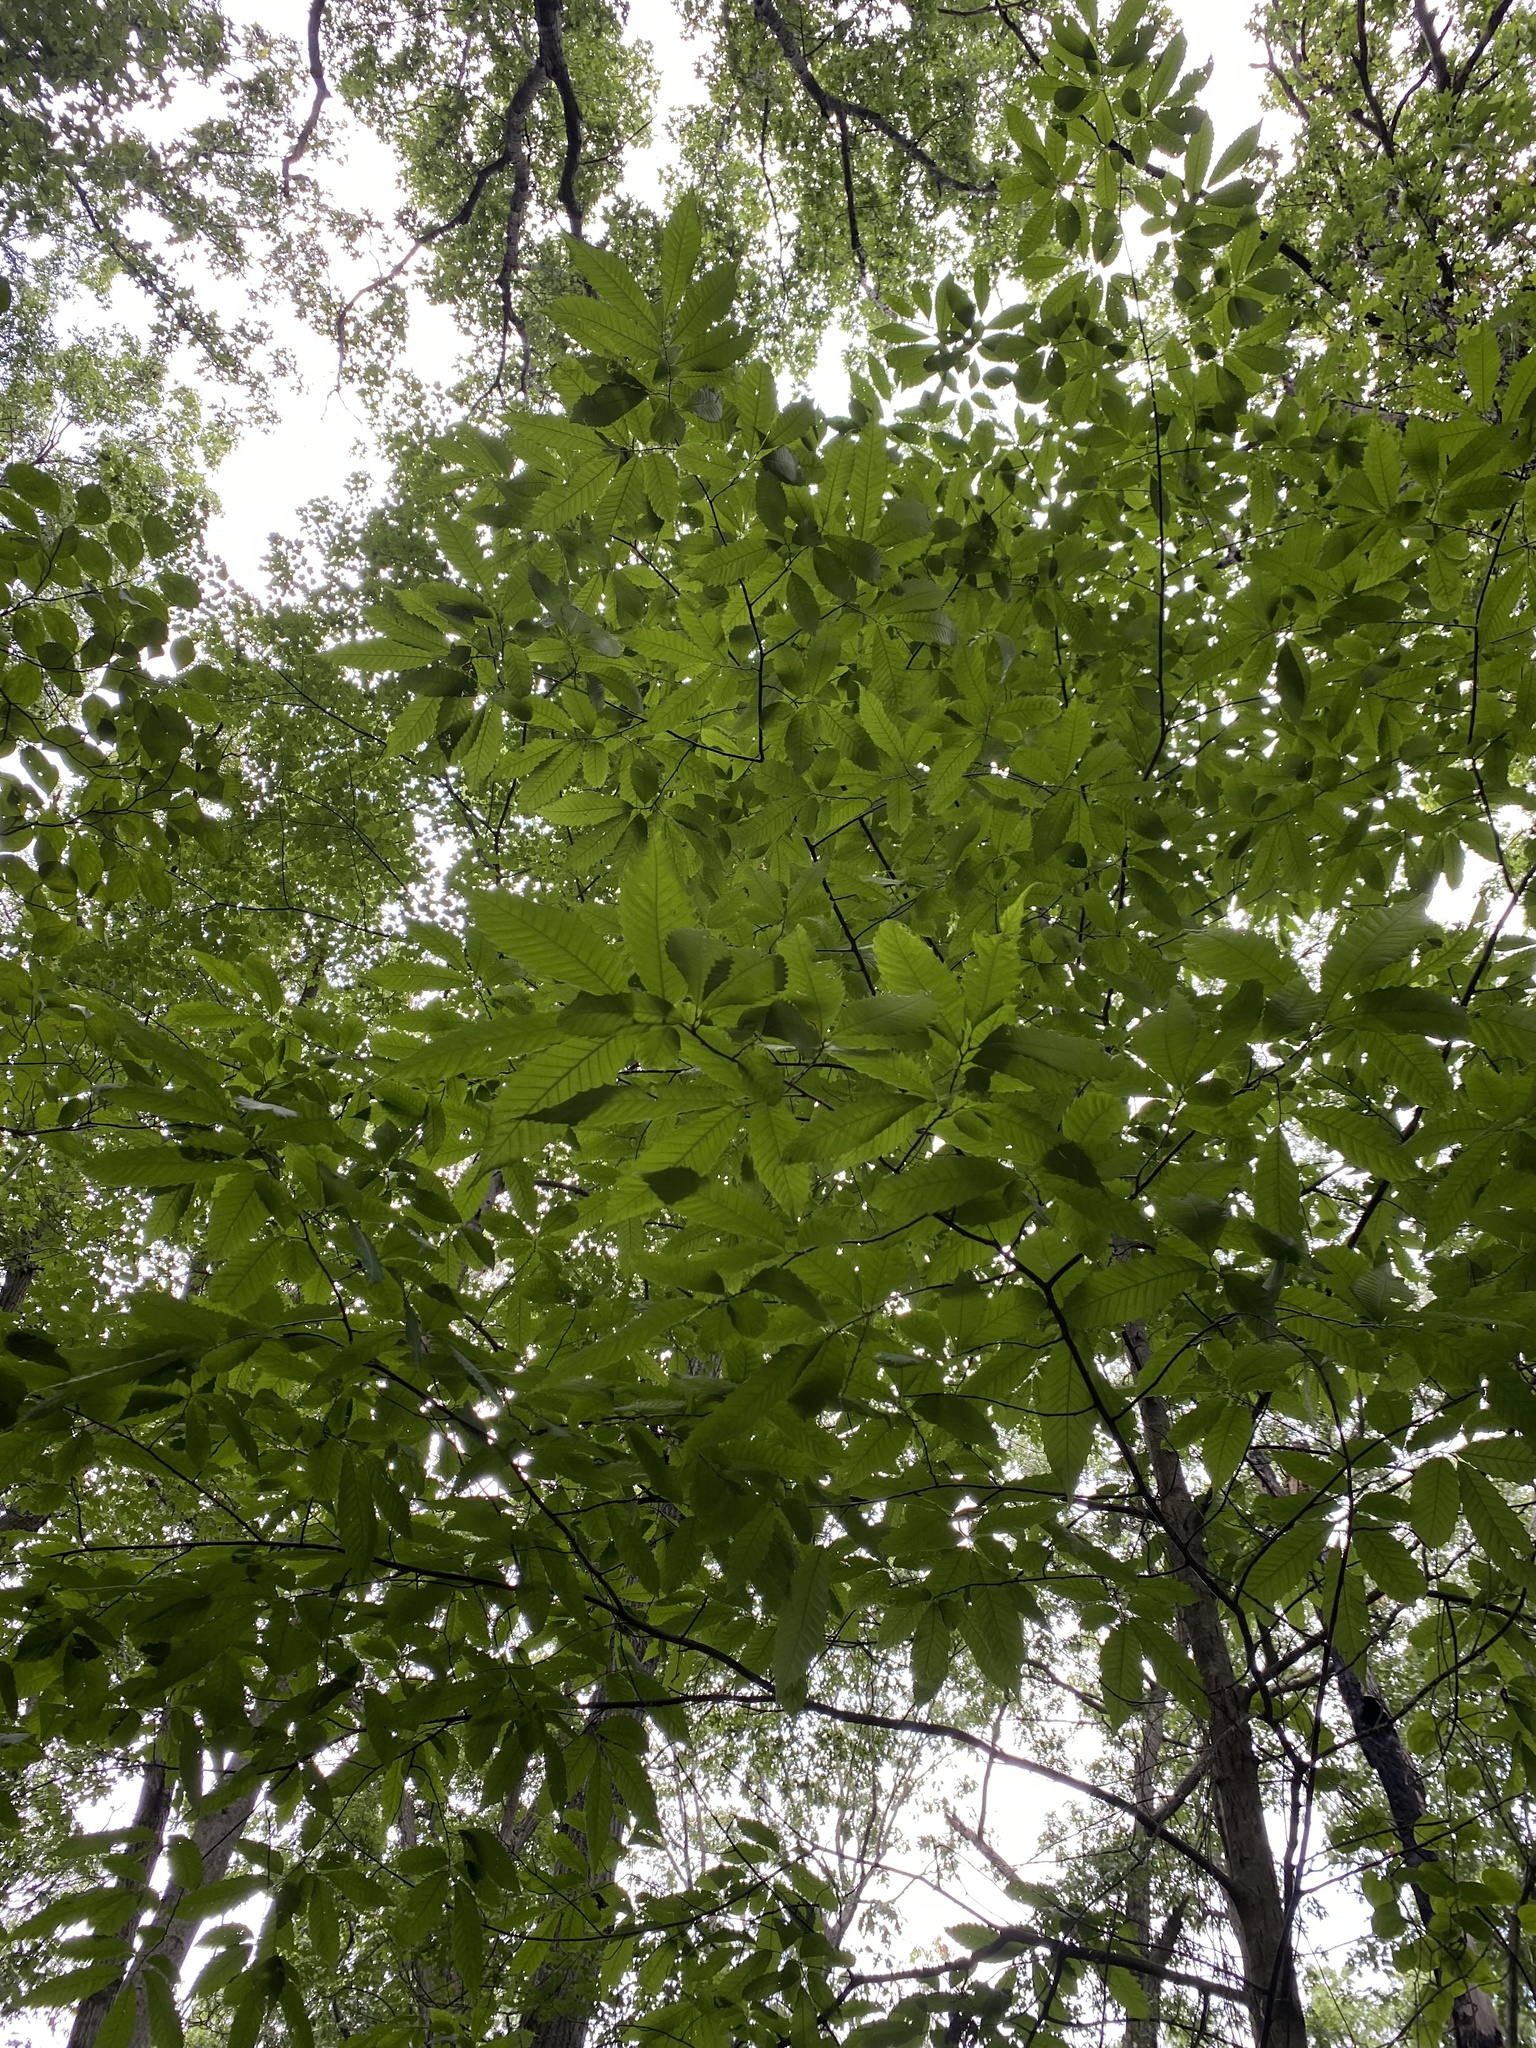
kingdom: Plantae
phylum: Tracheophyta
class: Magnoliopsida
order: Fagales
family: Fagaceae
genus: Castanea
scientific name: Castanea dentata
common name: American chestnut
